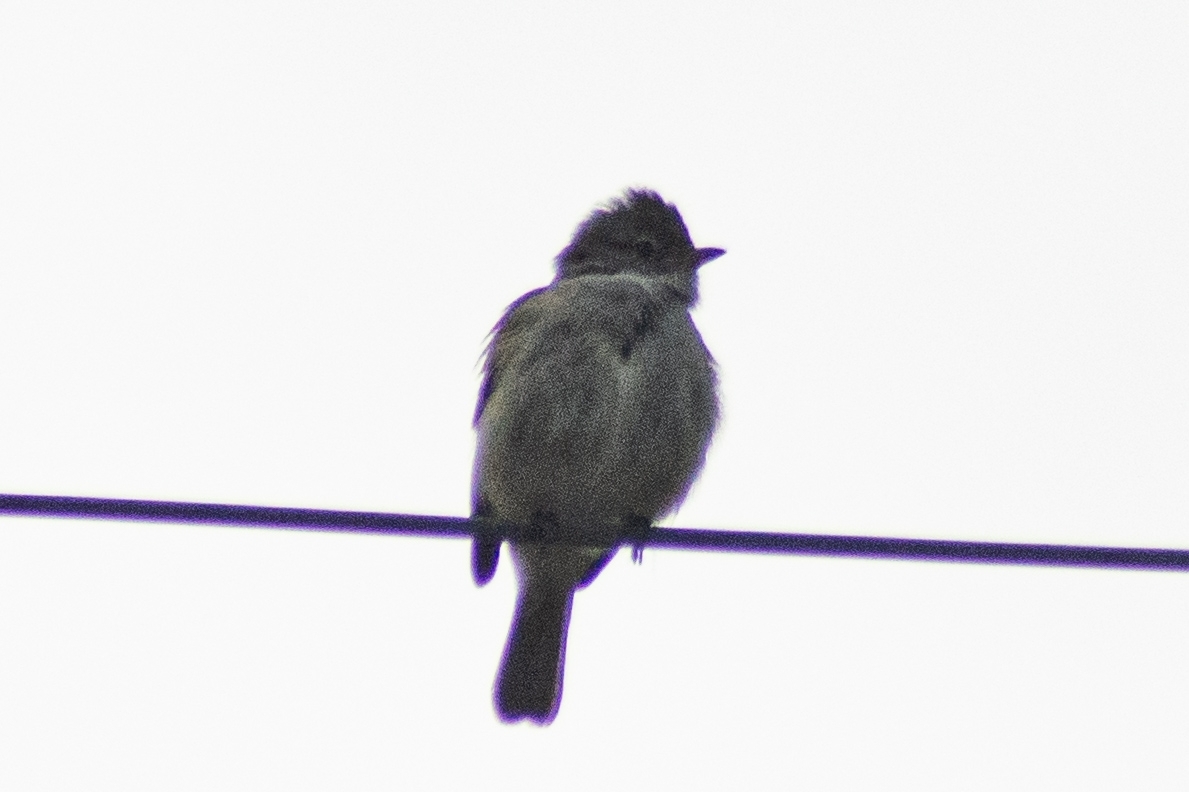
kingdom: Animalia
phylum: Chordata
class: Aves
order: Passeriformes
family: Tyrannidae
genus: Camptostoma
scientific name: Camptostoma obsoletum
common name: Southern beardless-tyrannulet
